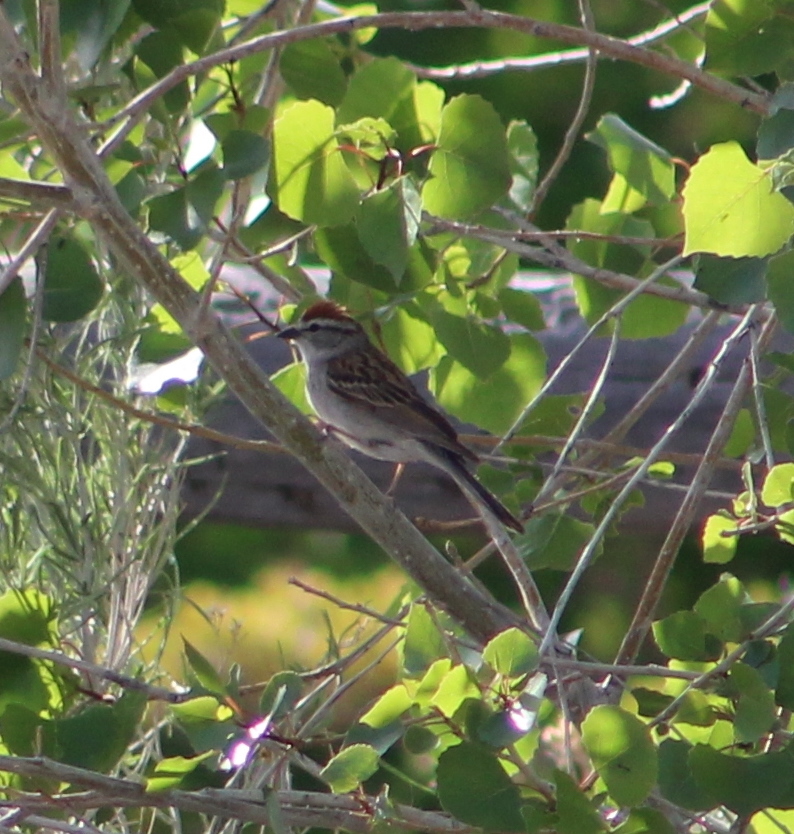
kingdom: Animalia
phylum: Chordata
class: Aves
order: Passeriformes
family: Passerellidae
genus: Spizella
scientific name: Spizella passerina
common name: Chipping sparrow
